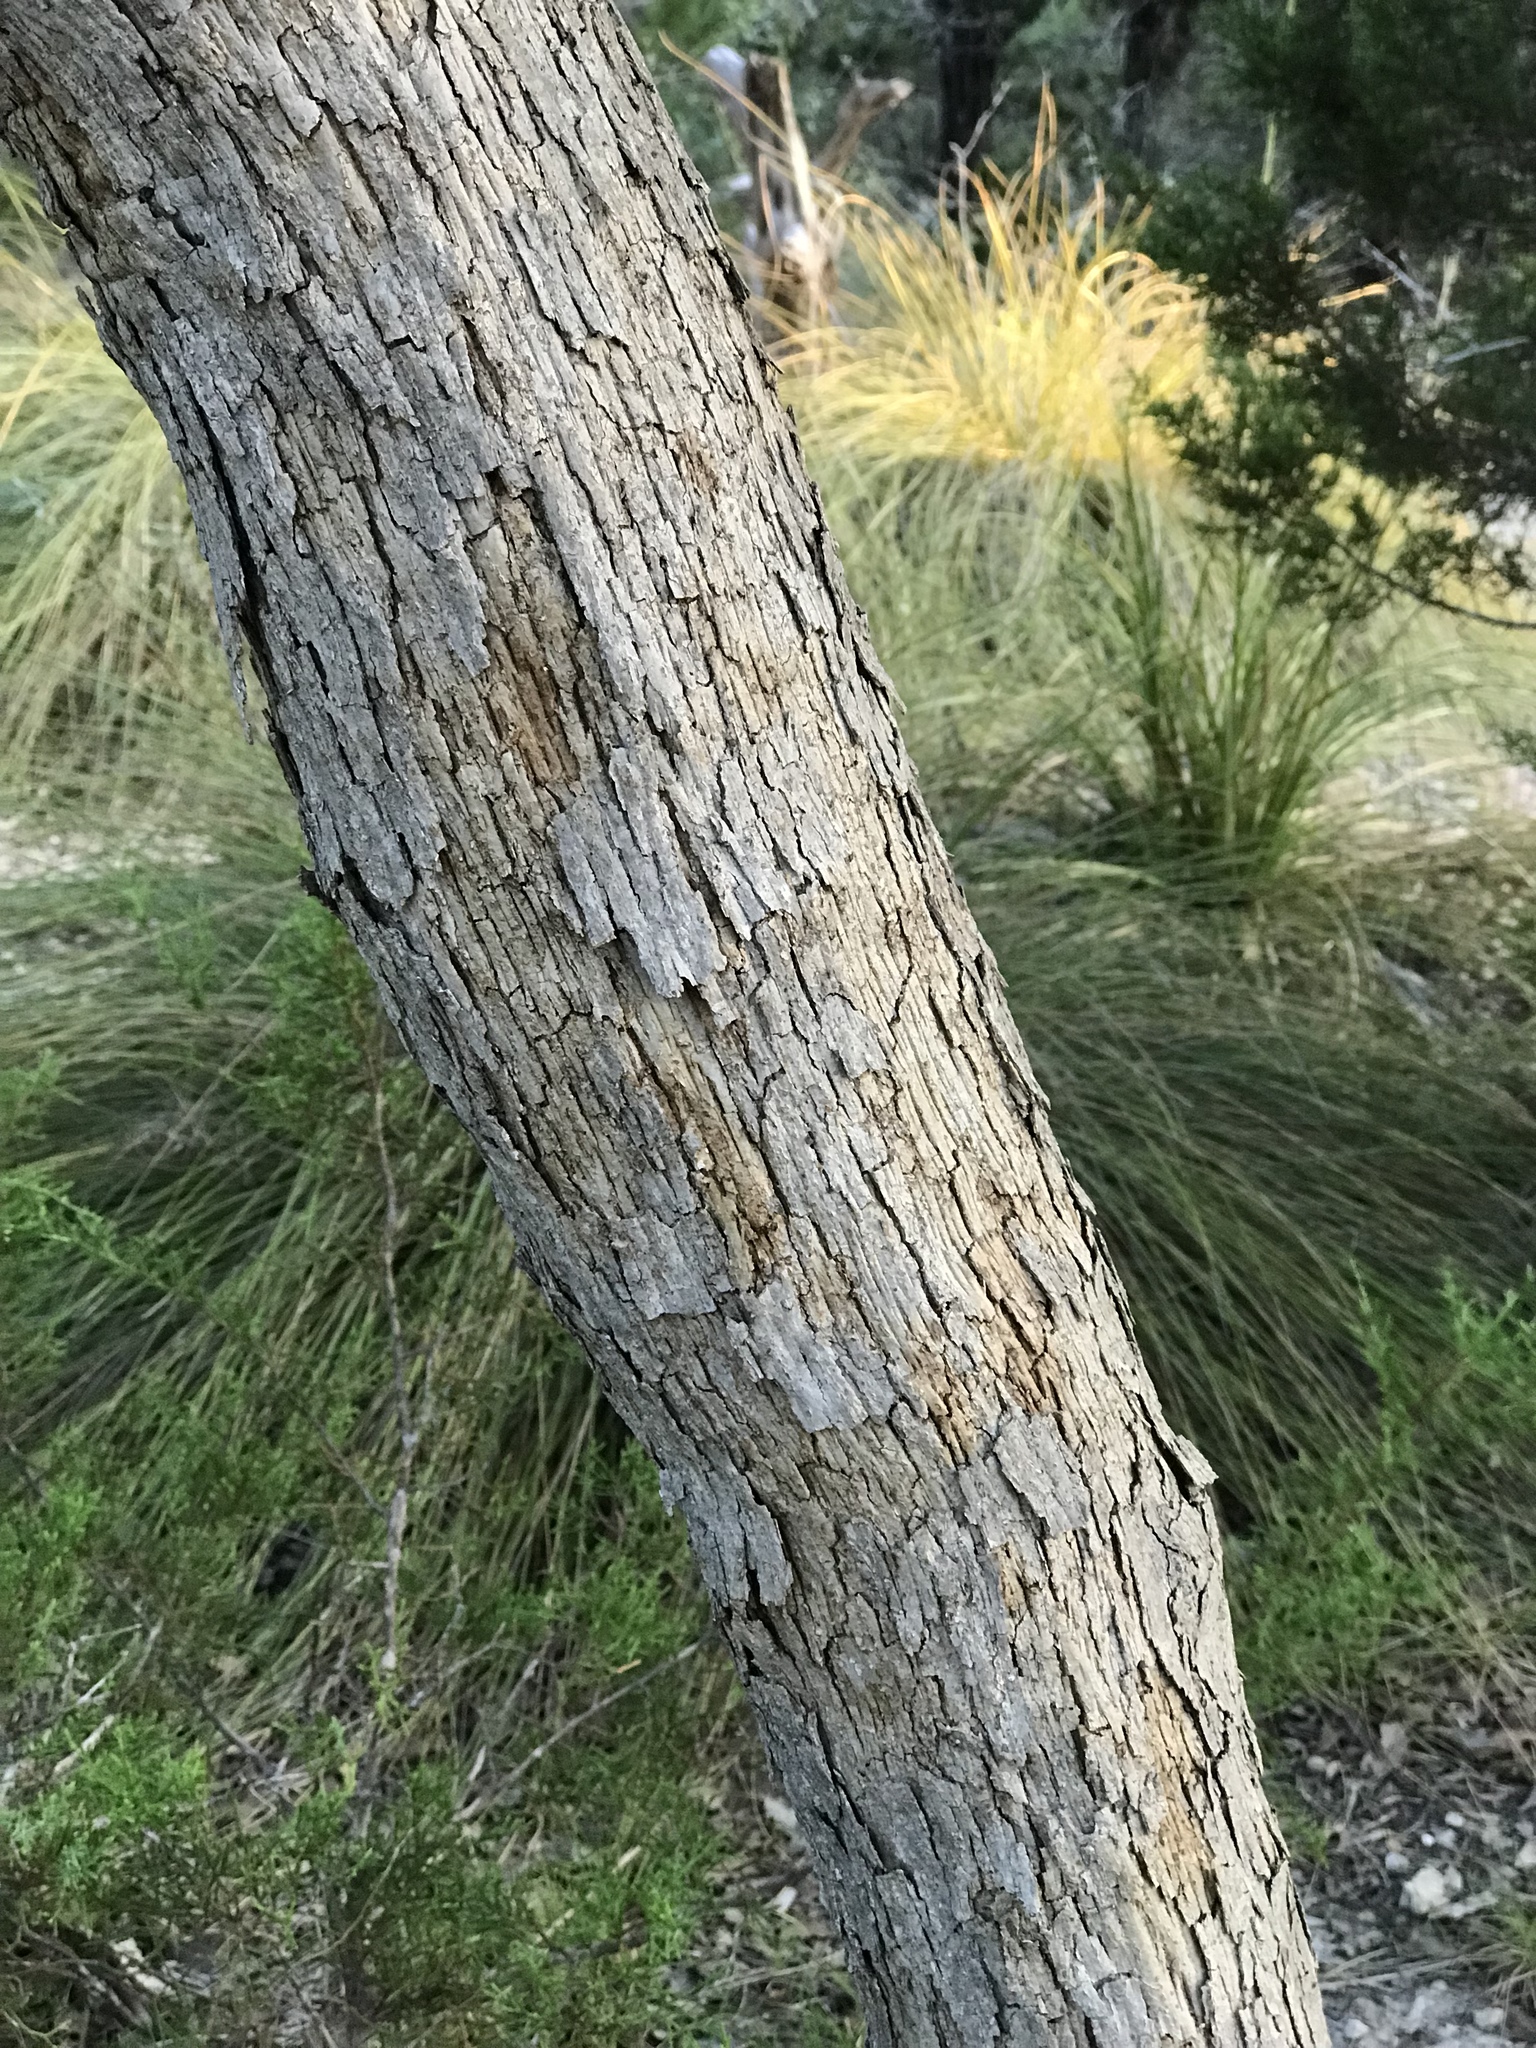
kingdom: Plantae
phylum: Tracheophyta
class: Magnoliopsida
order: Fagales
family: Fagaceae
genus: Quercus
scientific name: Quercus sinuata
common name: Durand oak
